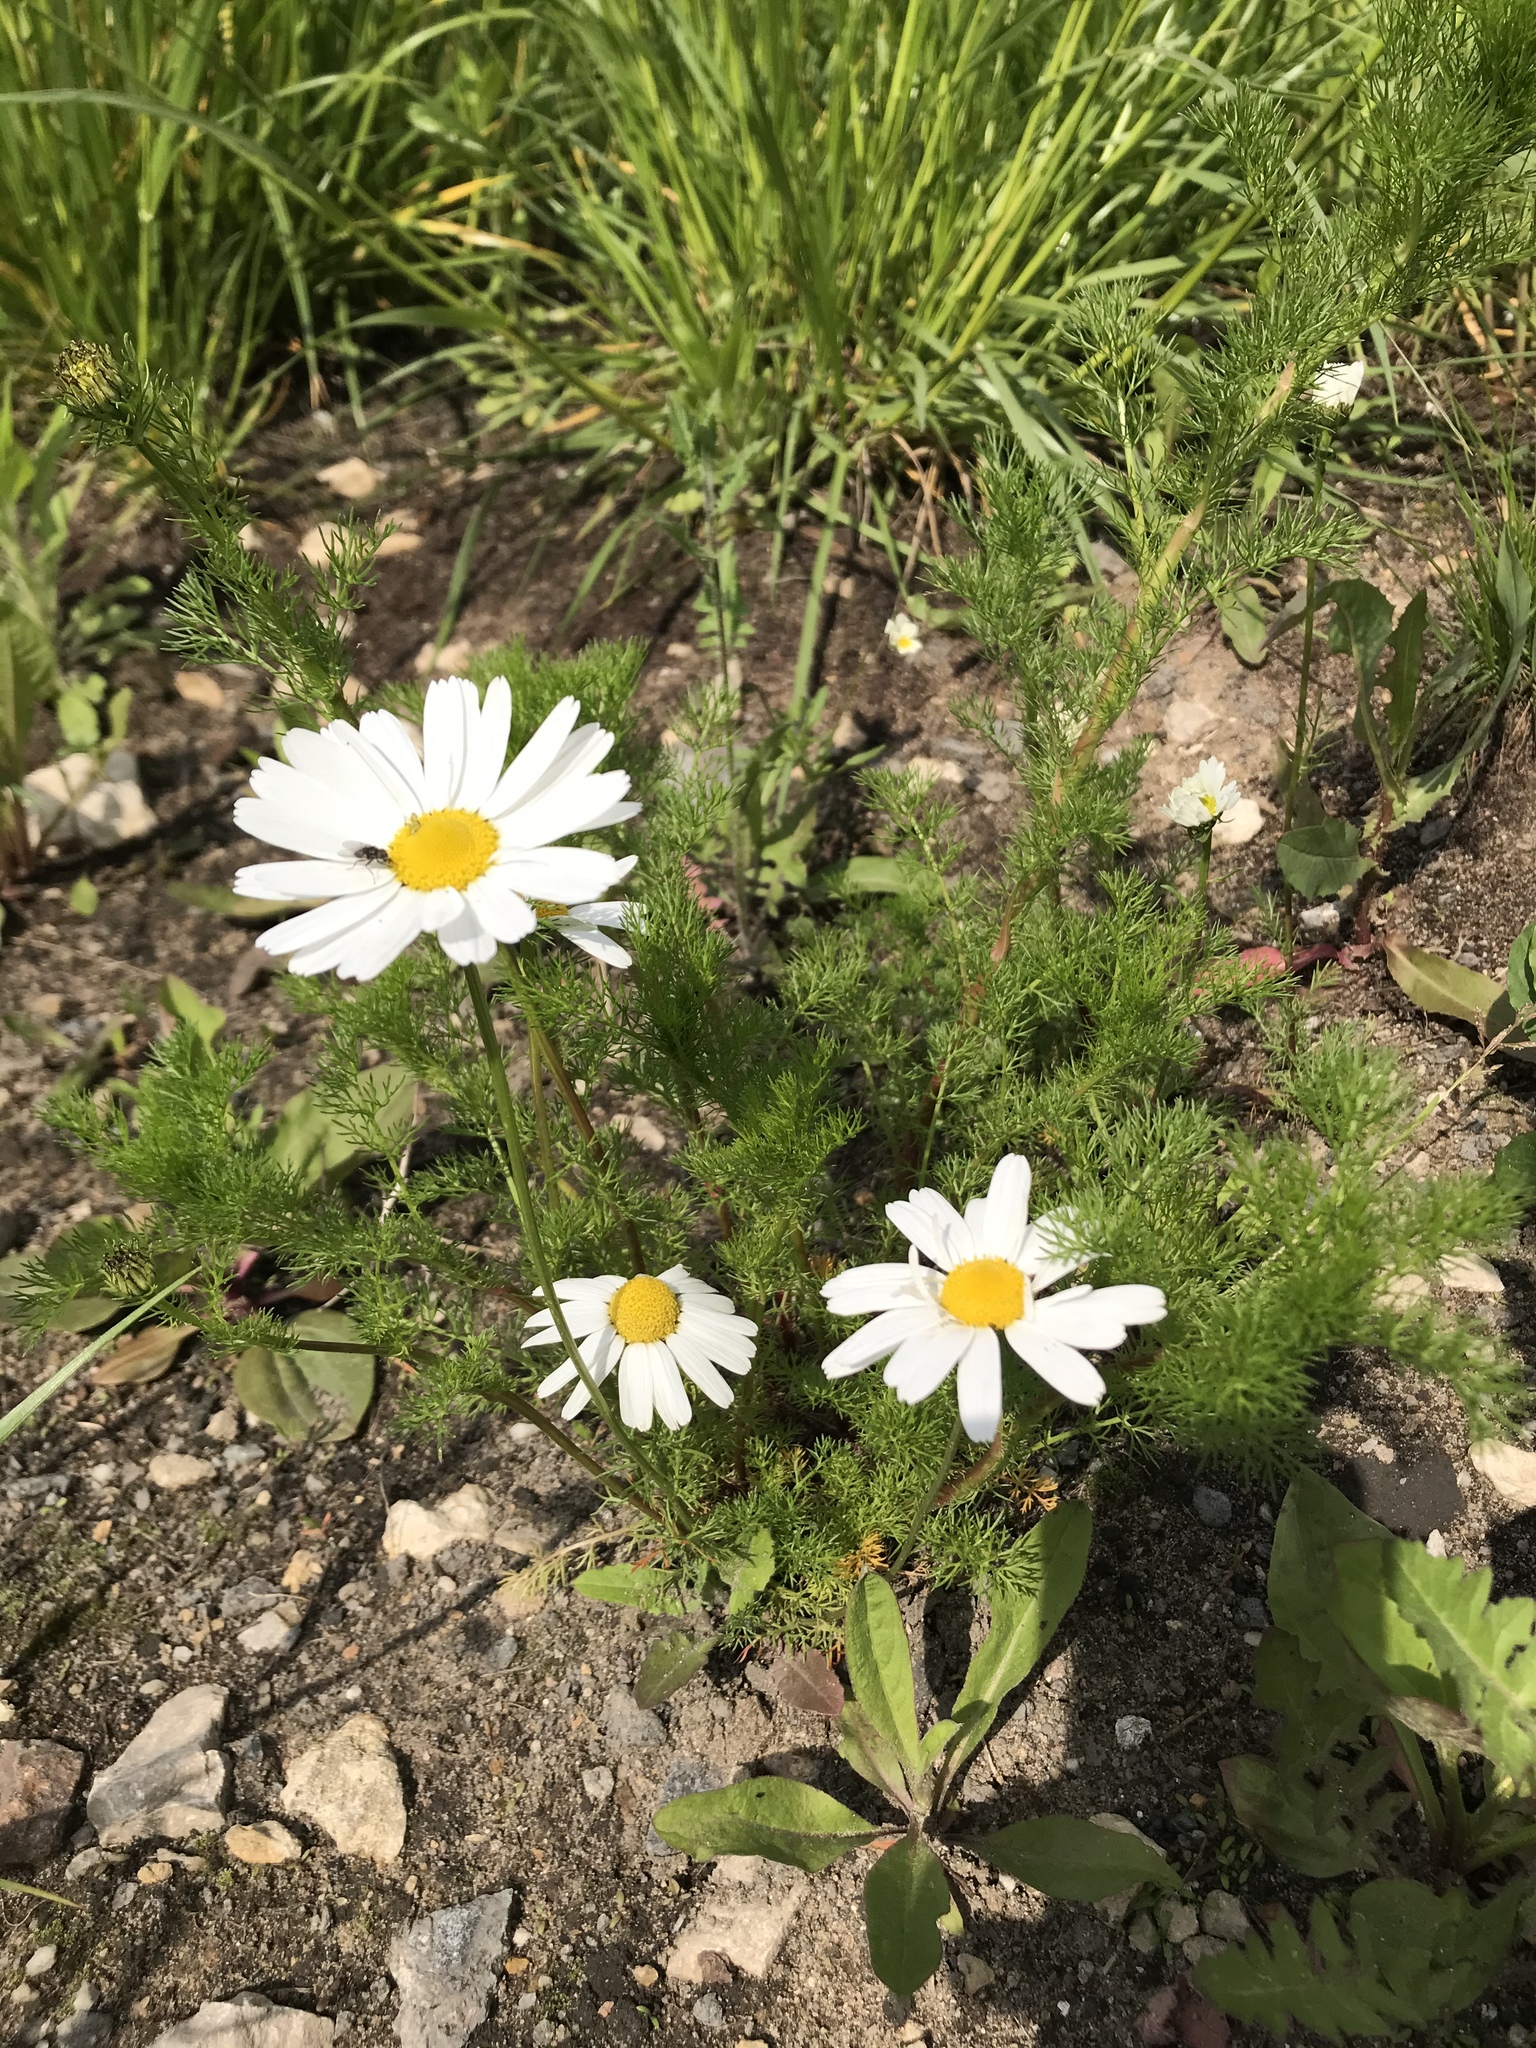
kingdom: Plantae
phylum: Tracheophyta
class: Magnoliopsida
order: Asterales
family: Asteraceae
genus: Tripleurospermum
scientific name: Tripleurospermum inodorum
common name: Scentless mayweed
